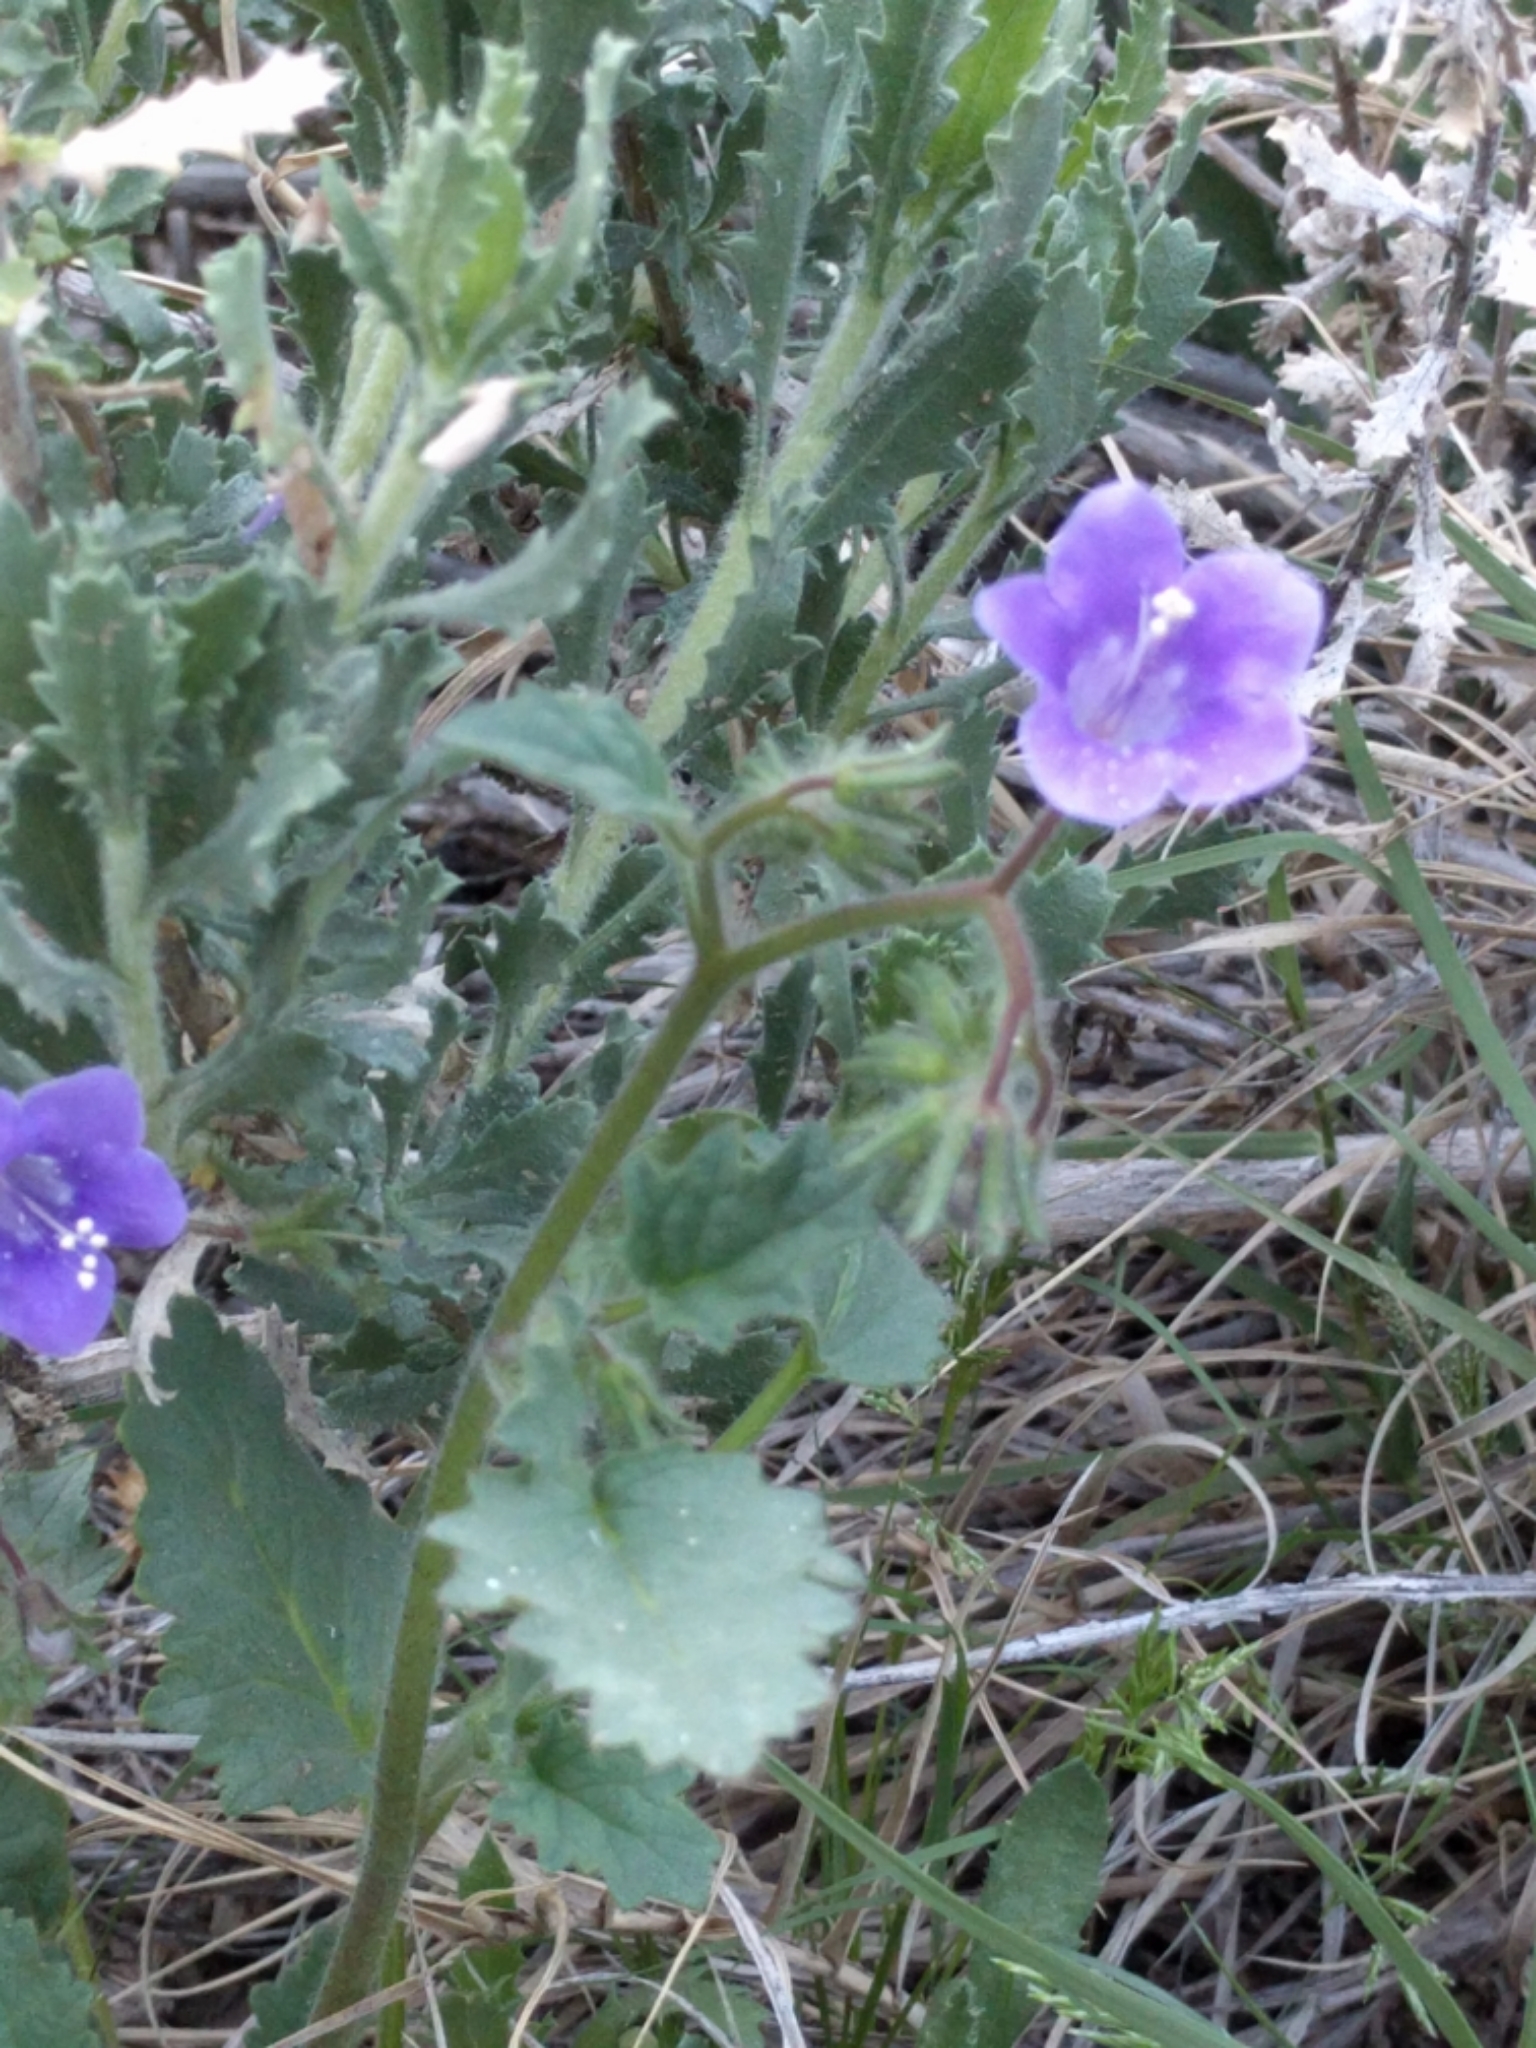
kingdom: Plantae
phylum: Tracheophyta
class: Magnoliopsida
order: Boraginales
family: Hydrophyllaceae
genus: Phacelia
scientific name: Phacelia minor
